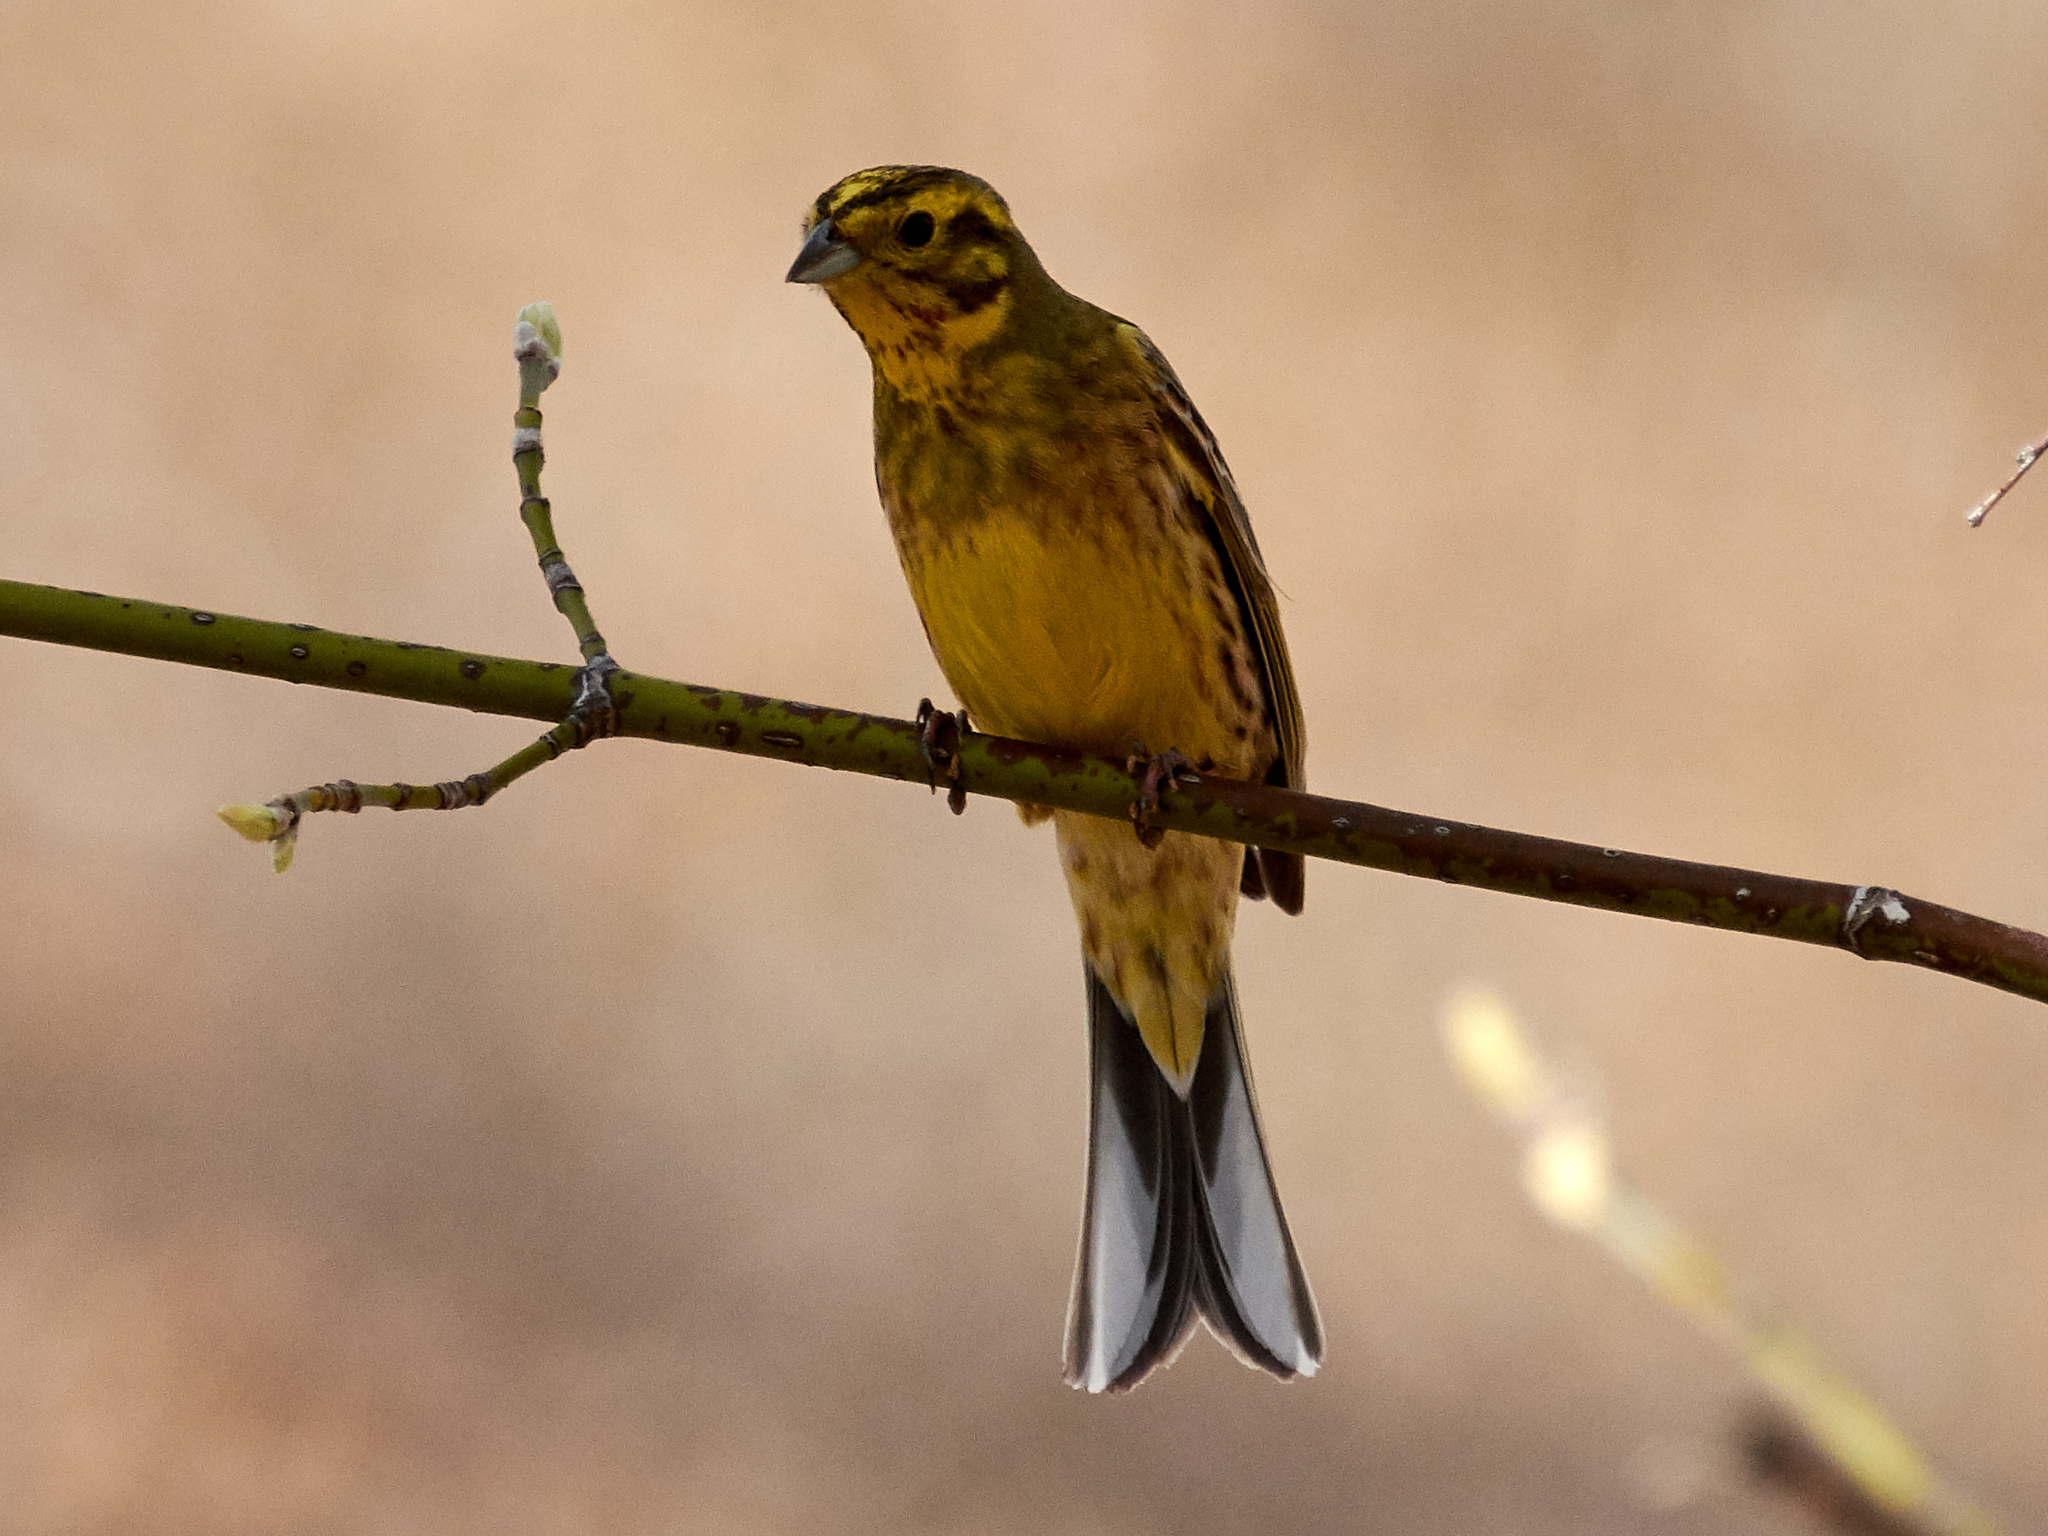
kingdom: Animalia
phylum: Chordata
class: Aves
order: Passeriformes
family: Emberizidae
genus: Emberiza
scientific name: Emberiza citrinella
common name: Yellowhammer
